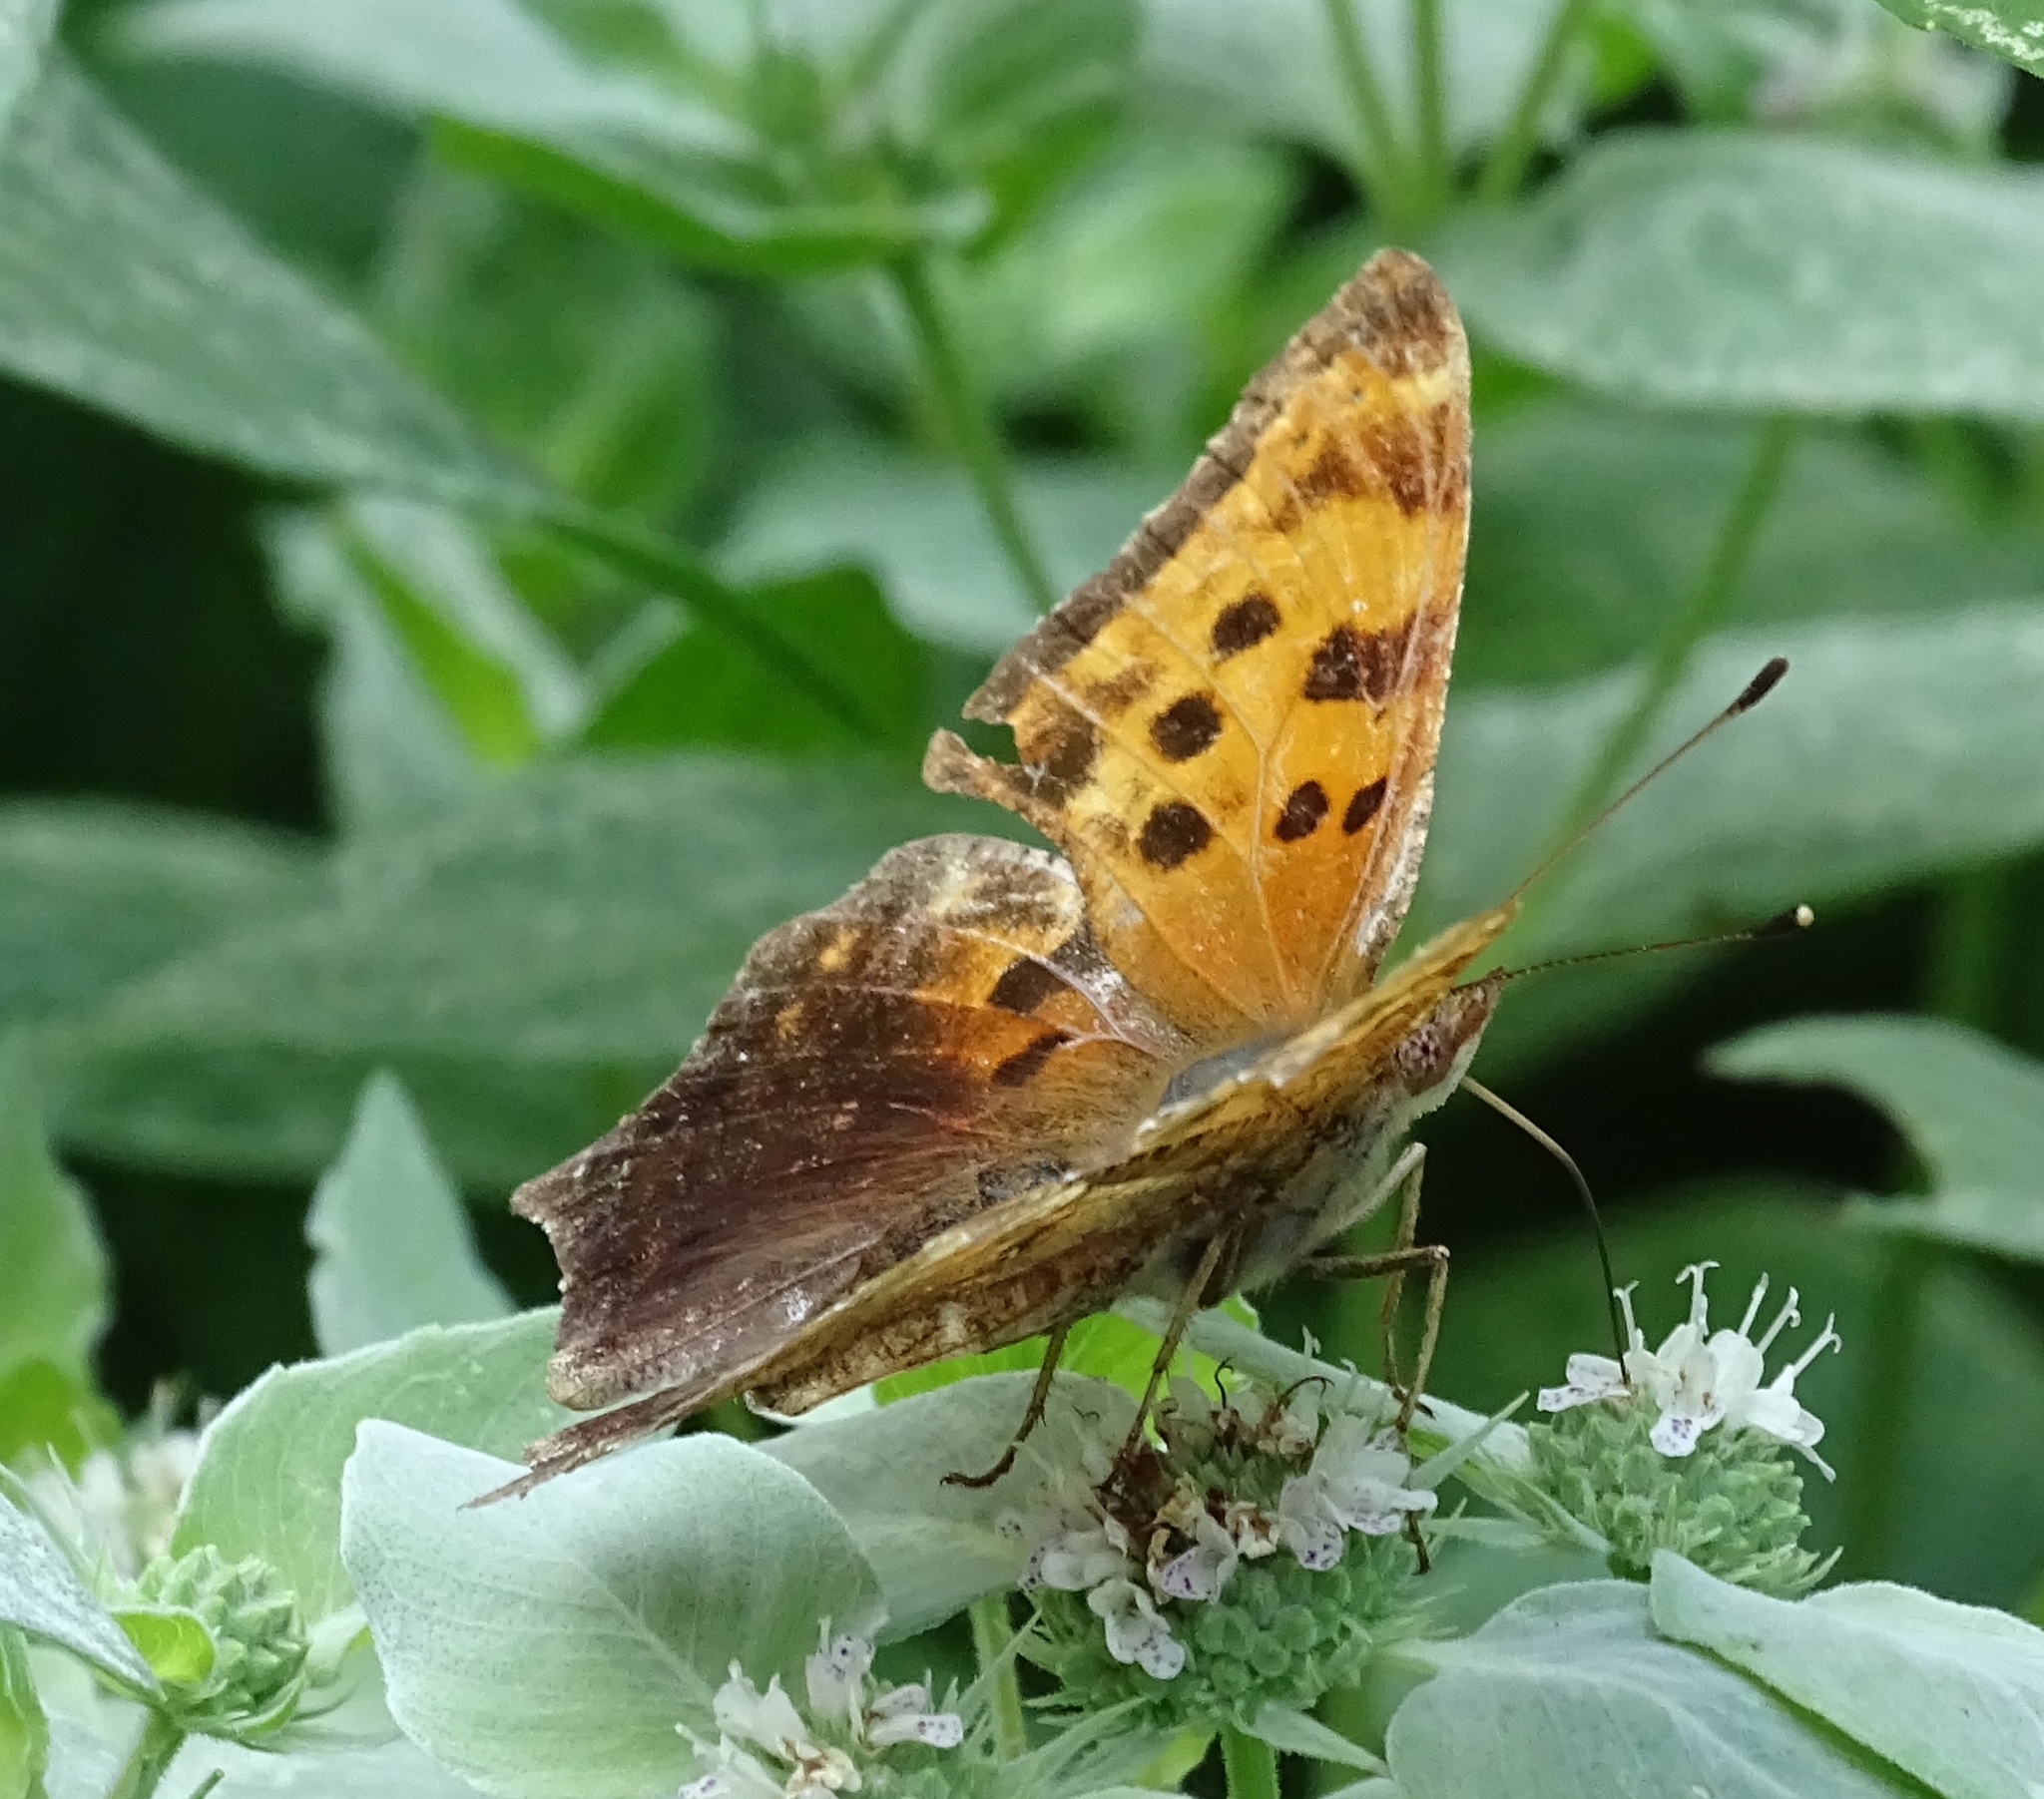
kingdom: Animalia
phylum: Arthropoda
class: Insecta
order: Lepidoptera
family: Nymphalidae
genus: Polygonia
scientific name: Polygonia comma
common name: Eastern comma
